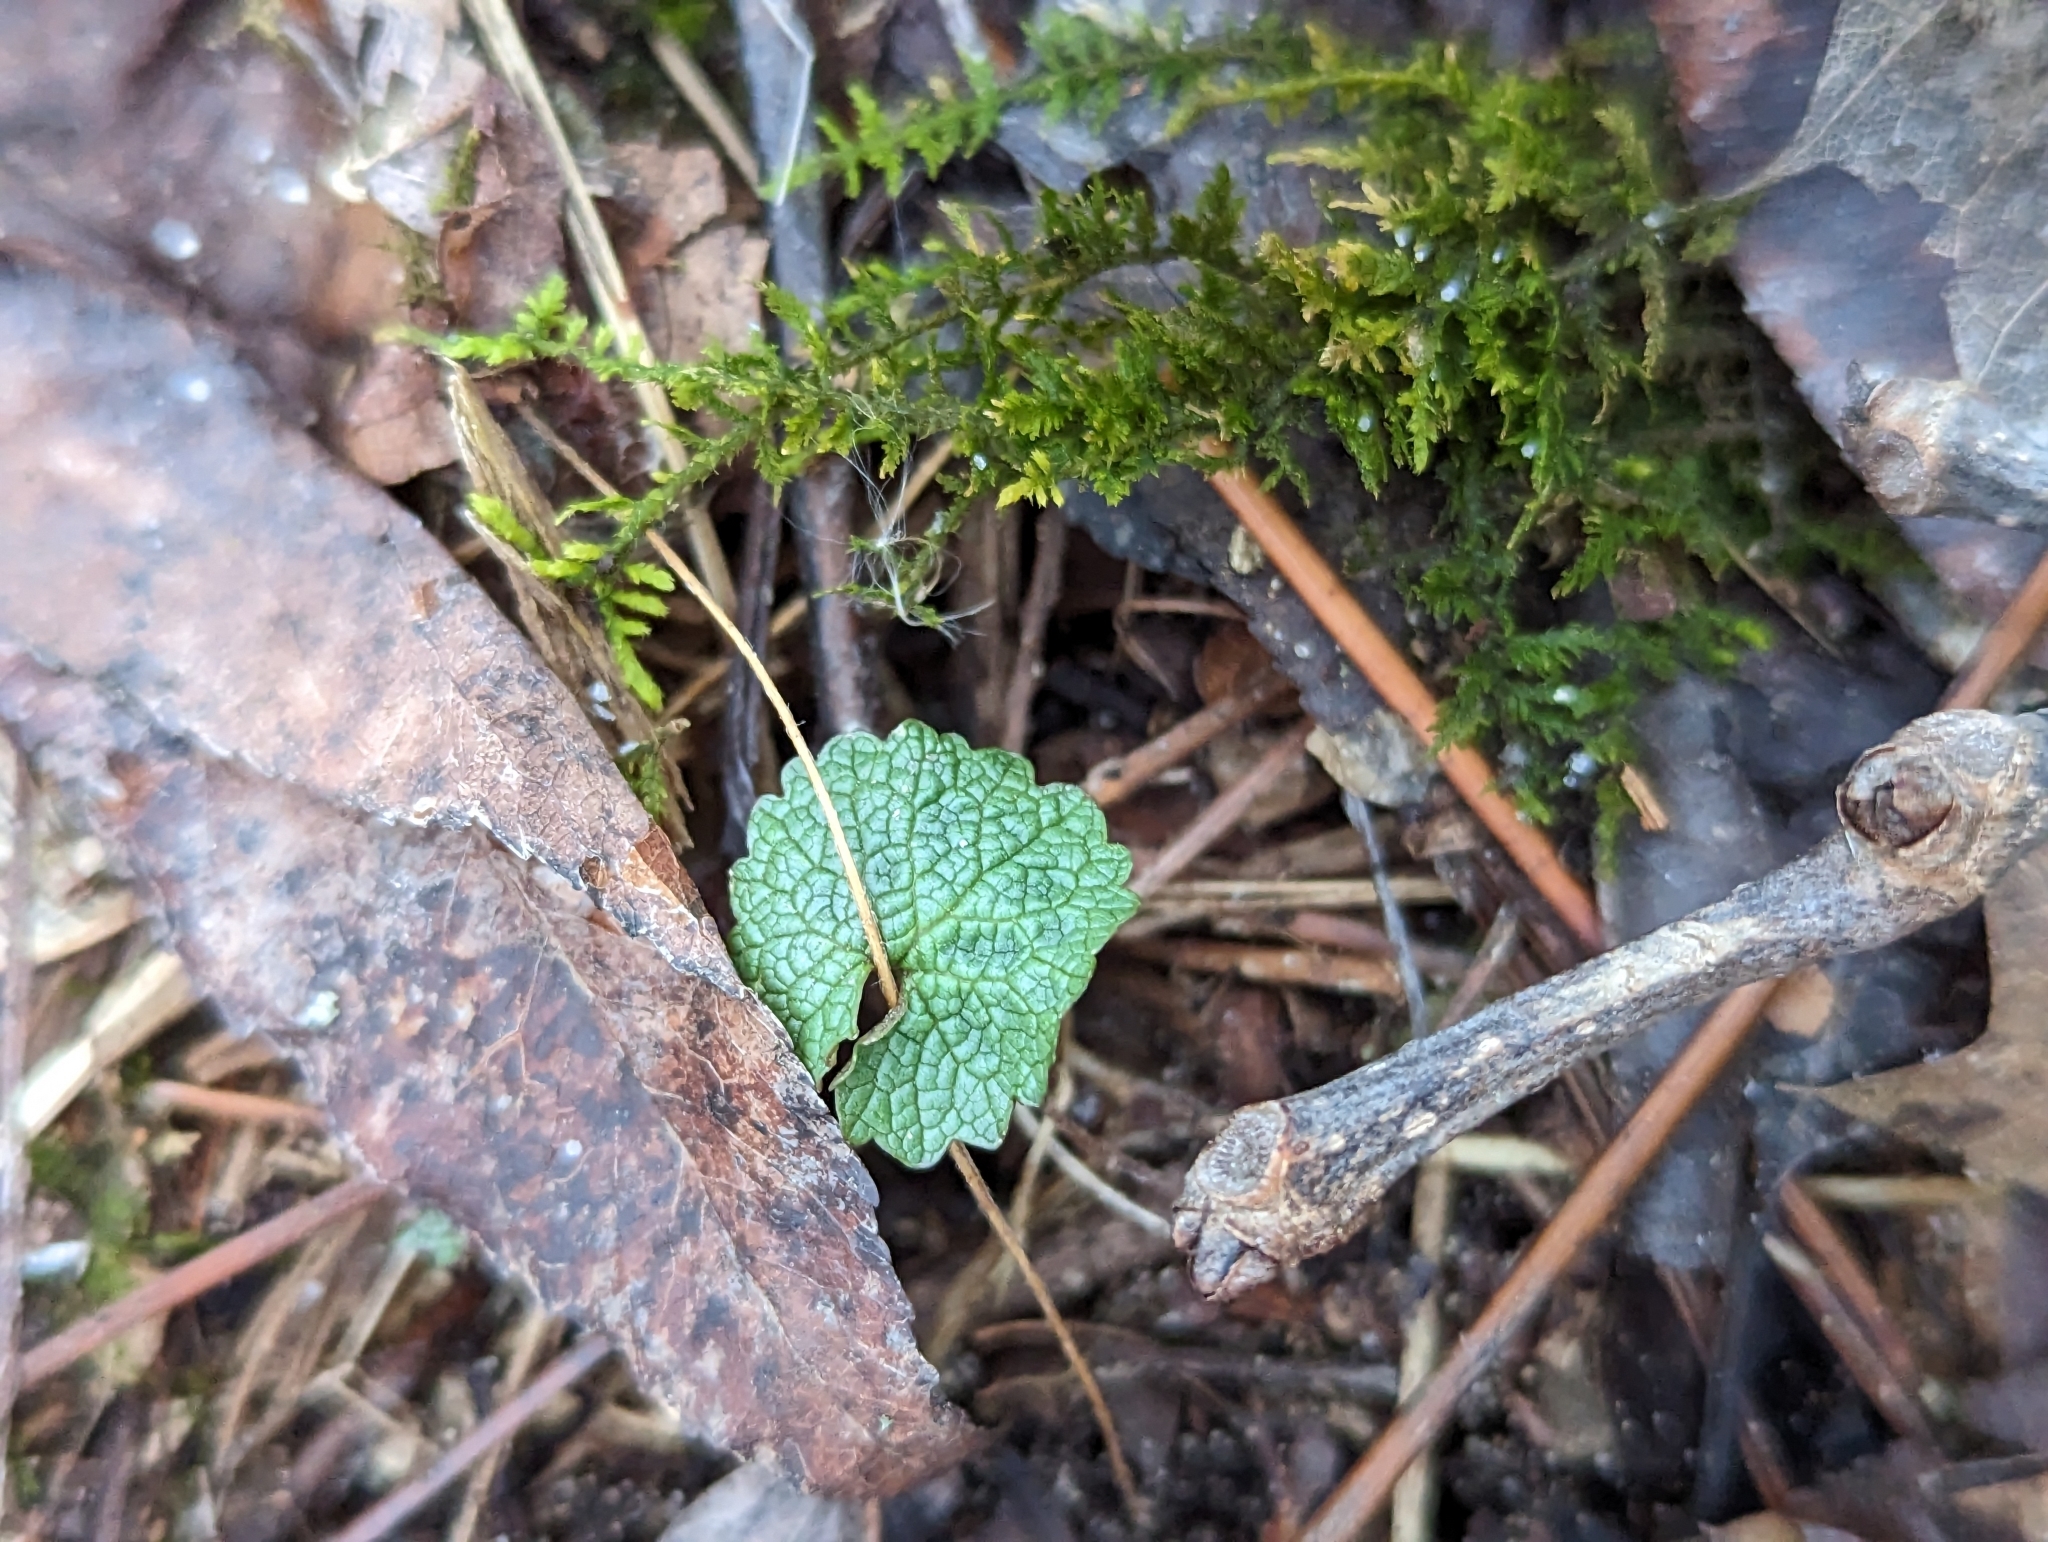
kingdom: Plantae
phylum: Tracheophyta
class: Magnoliopsida
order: Brassicales
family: Brassicaceae
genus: Alliaria
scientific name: Alliaria petiolata
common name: Garlic mustard
